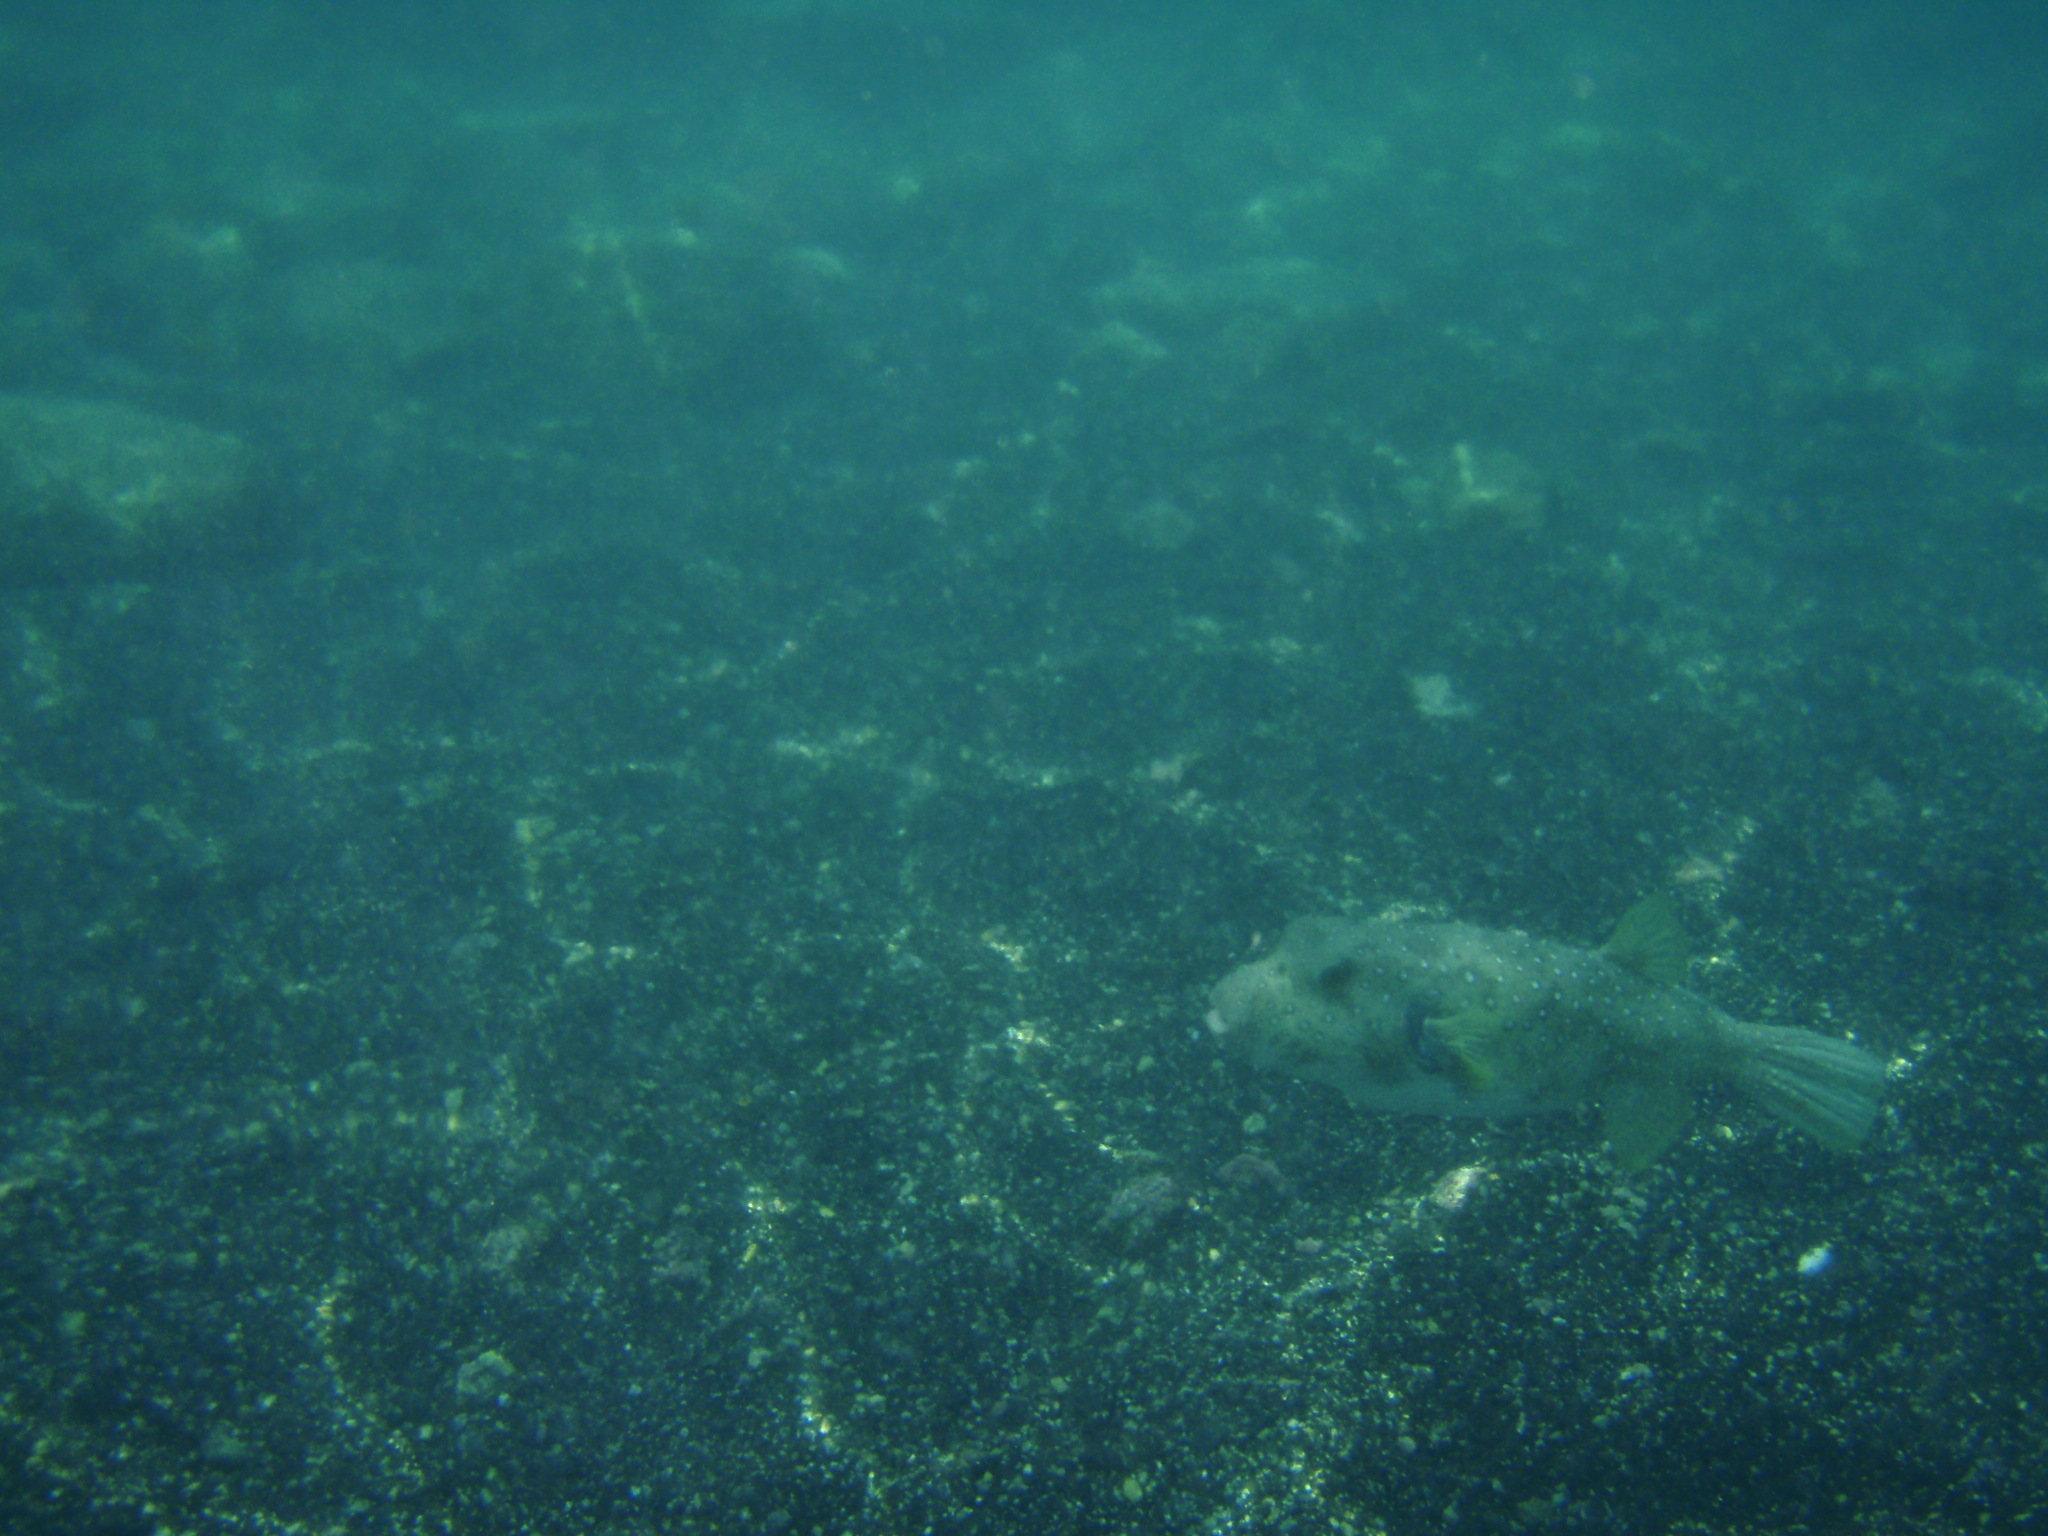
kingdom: Animalia
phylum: Chordata
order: Tetraodontiformes
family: Tetraodontidae
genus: Arothron
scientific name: Arothron hispidus
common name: Stripebelly puffer
